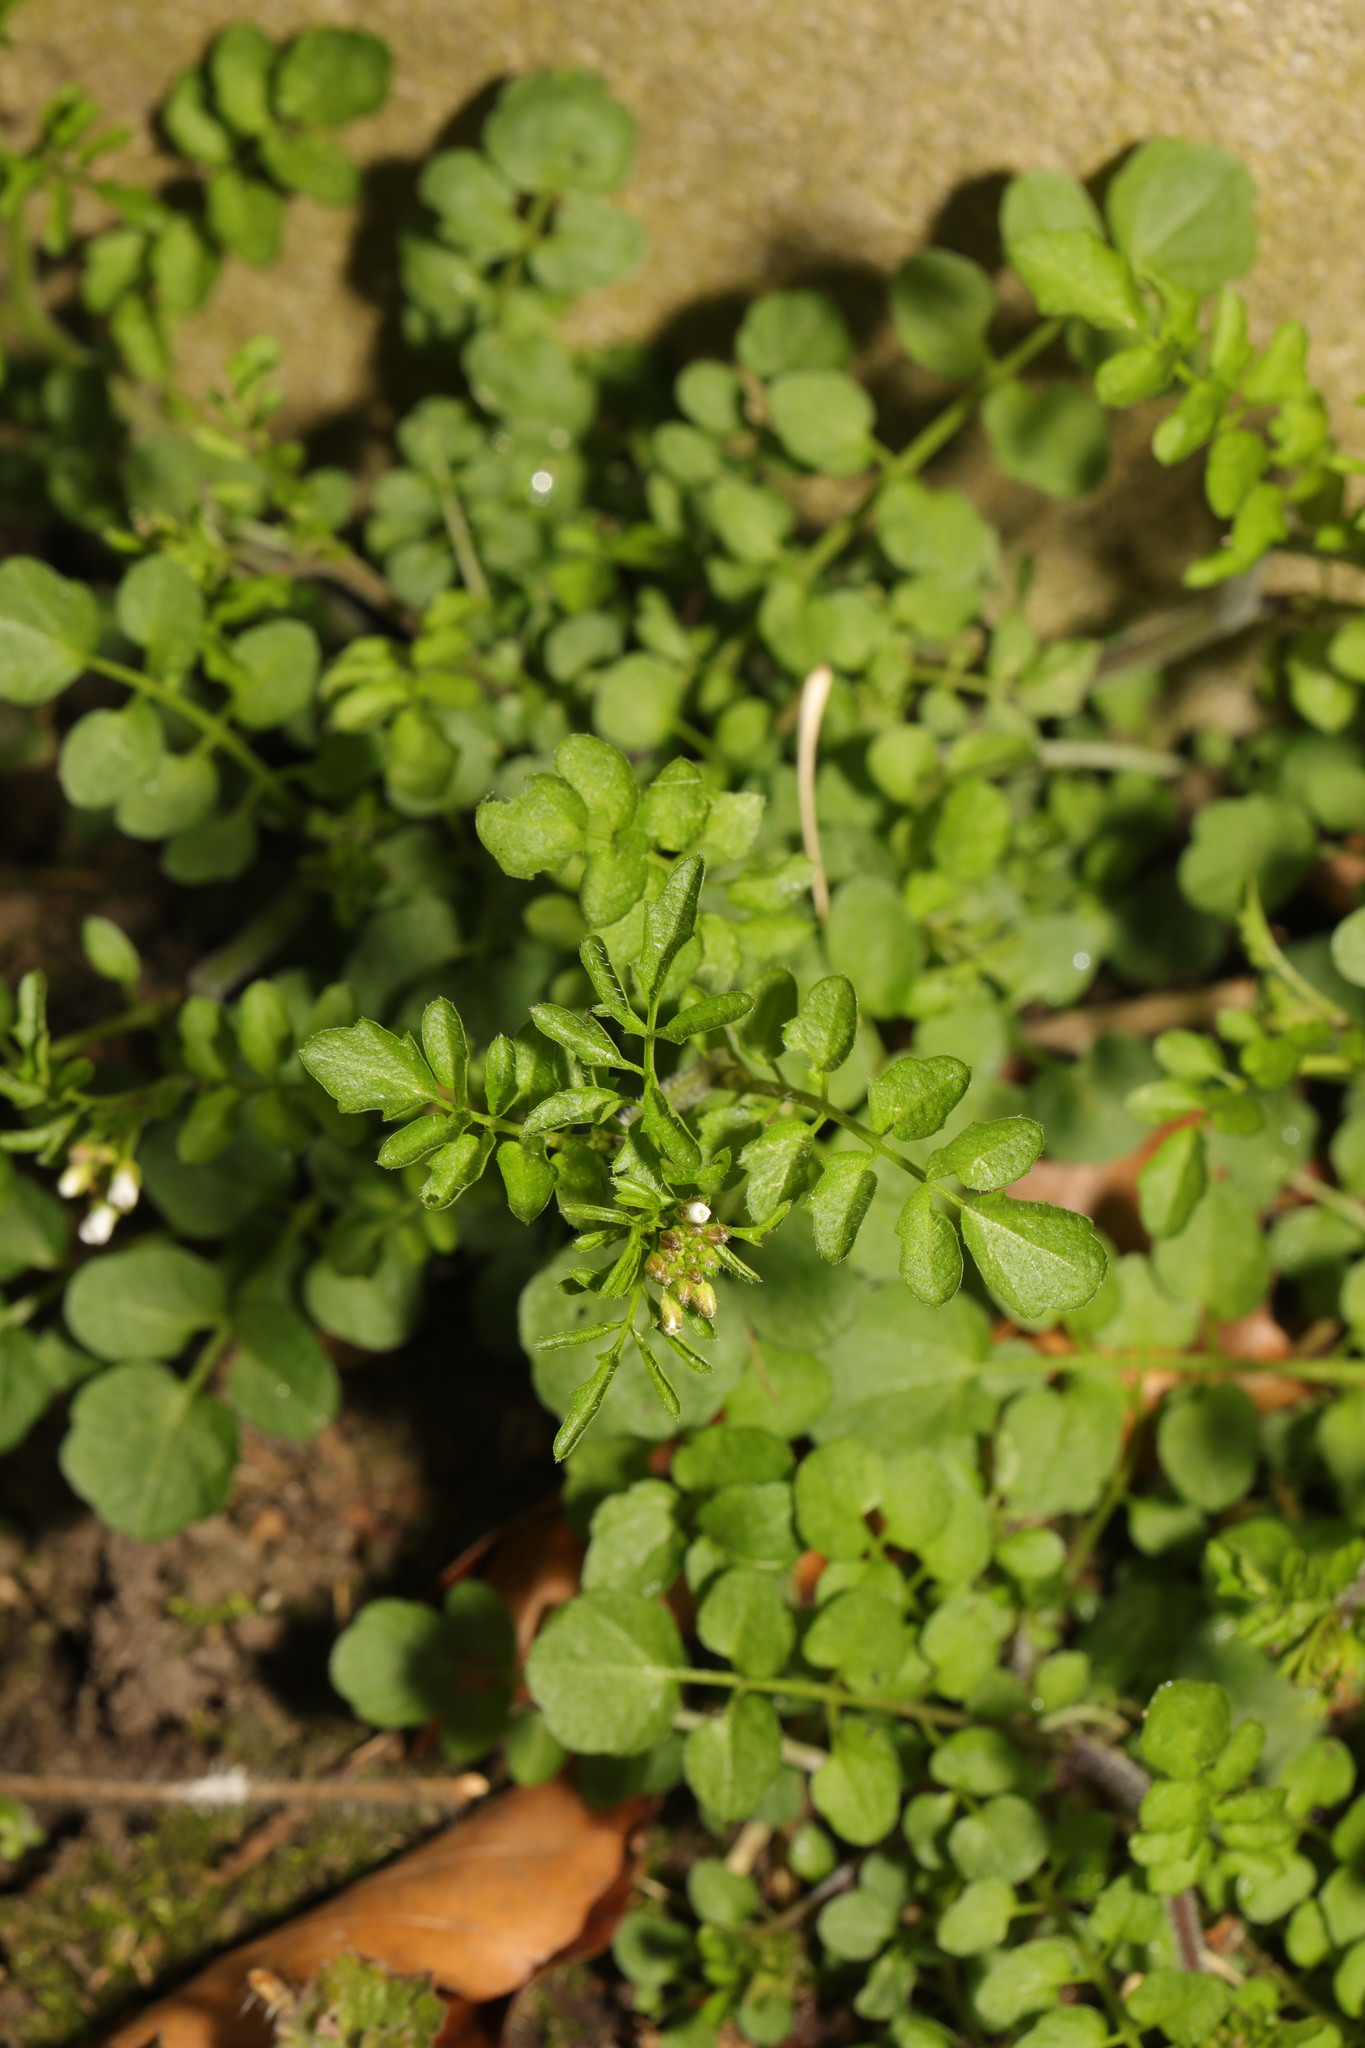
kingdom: Plantae
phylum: Tracheophyta
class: Magnoliopsida
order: Brassicales
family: Brassicaceae
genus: Cardamine
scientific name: Cardamine flexuosa
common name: Woodland bittercress
